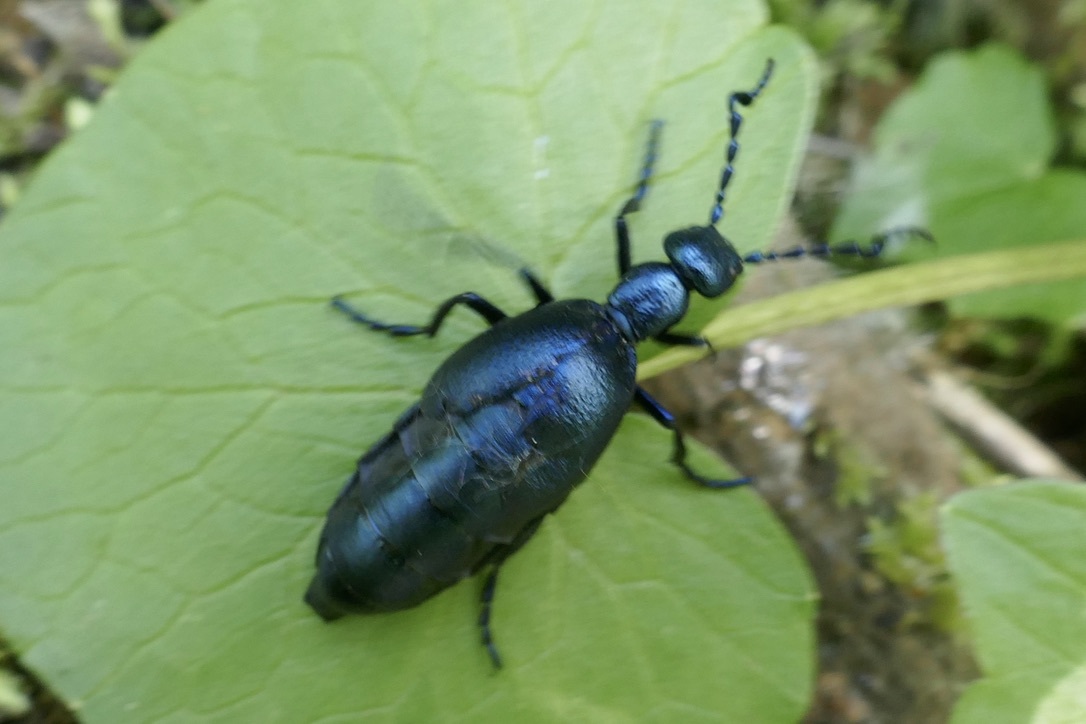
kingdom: Animalia
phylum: Arthropoda
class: Insecta
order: Coleoptera
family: Meloidae
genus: Meloe
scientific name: Meloe violaceus
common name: Violet oil-beetle
